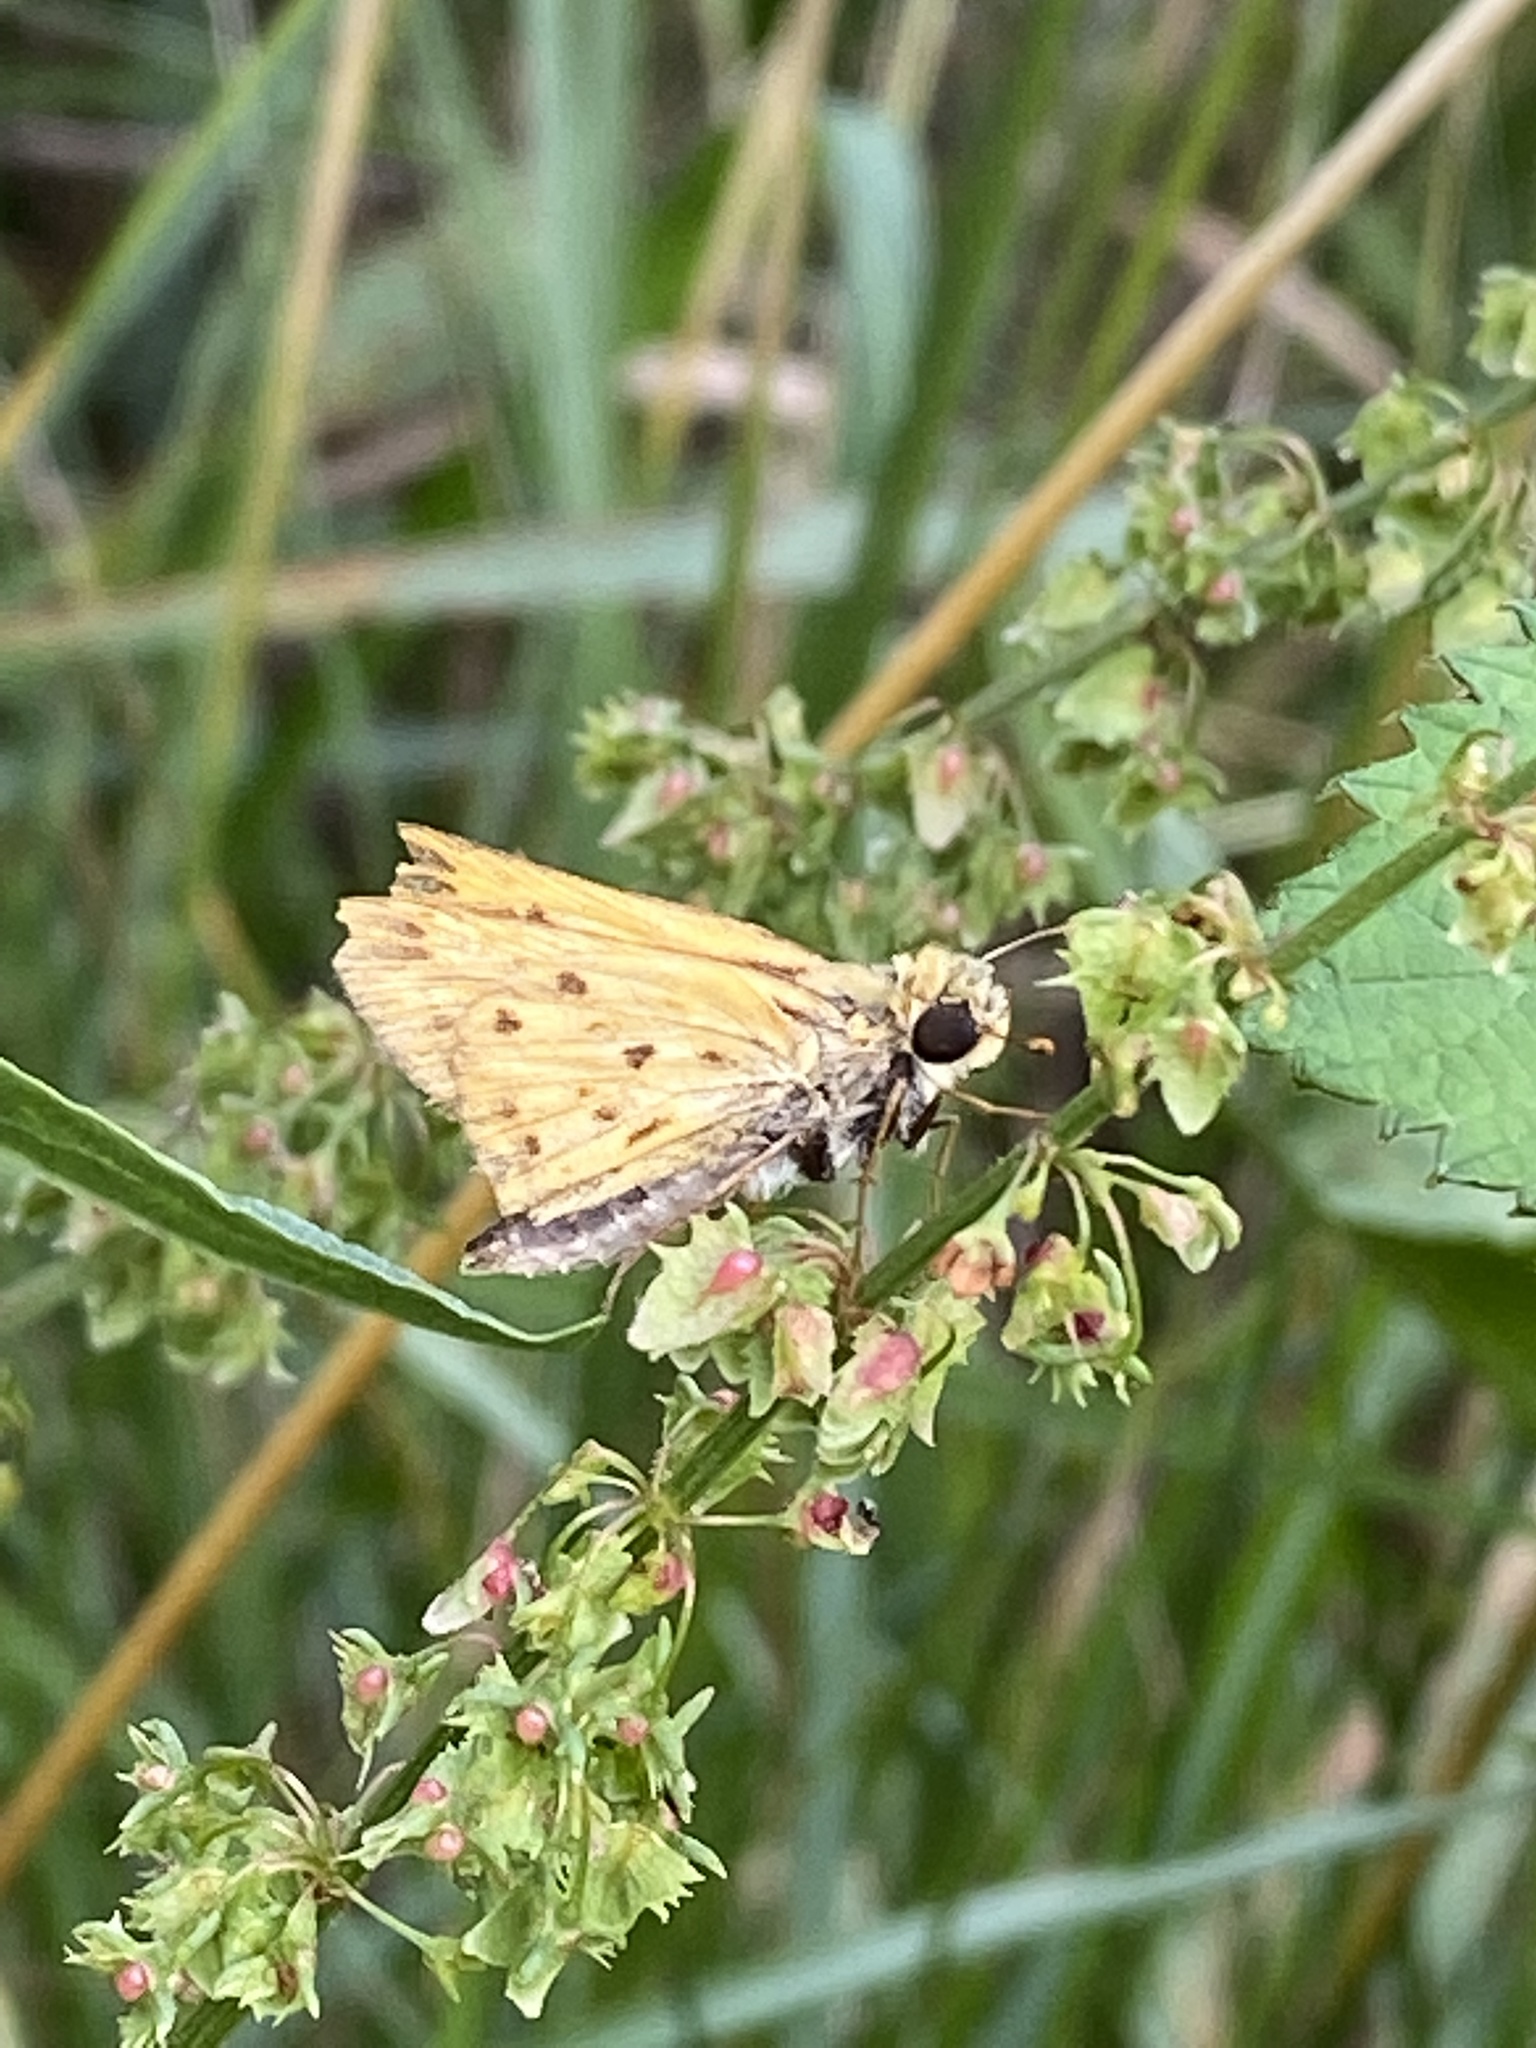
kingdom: Animalia
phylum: Arthropoda
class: Insecta
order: Lepidoptera
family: Hesperiidae
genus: Hylephila
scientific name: Hylephila phyleus
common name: Fiery skipper
